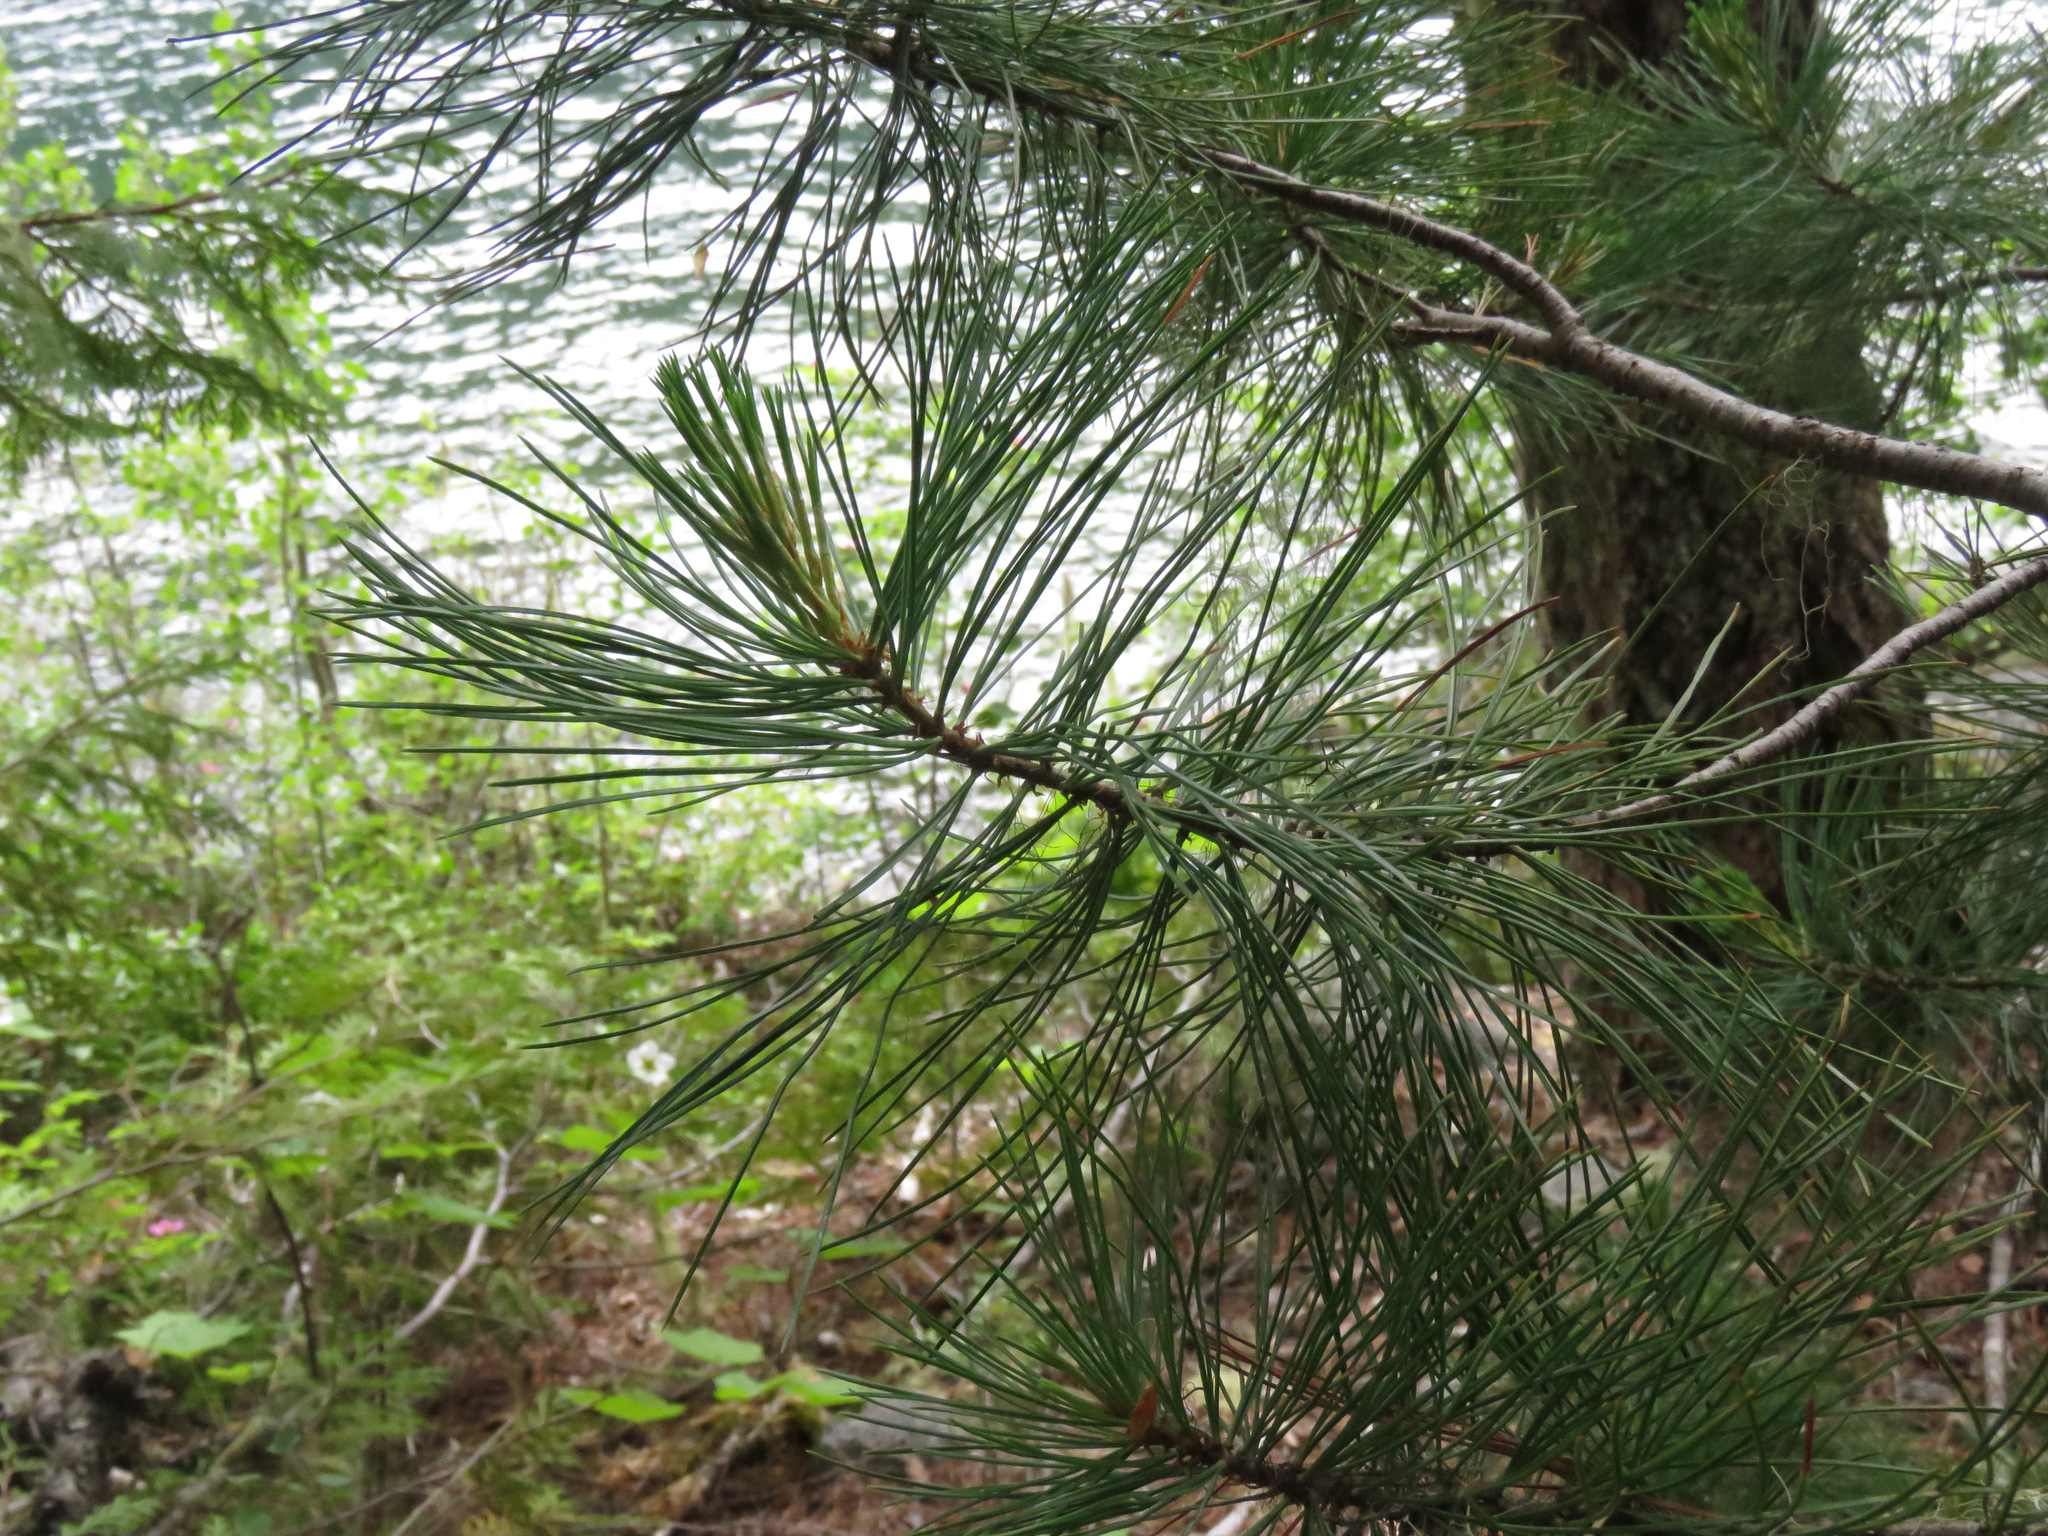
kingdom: Plantae
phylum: Tracheophyta
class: Pinopsida
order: Pinales
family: Pinaceae
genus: Pinus
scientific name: Pinus monticola
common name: Western white pine
